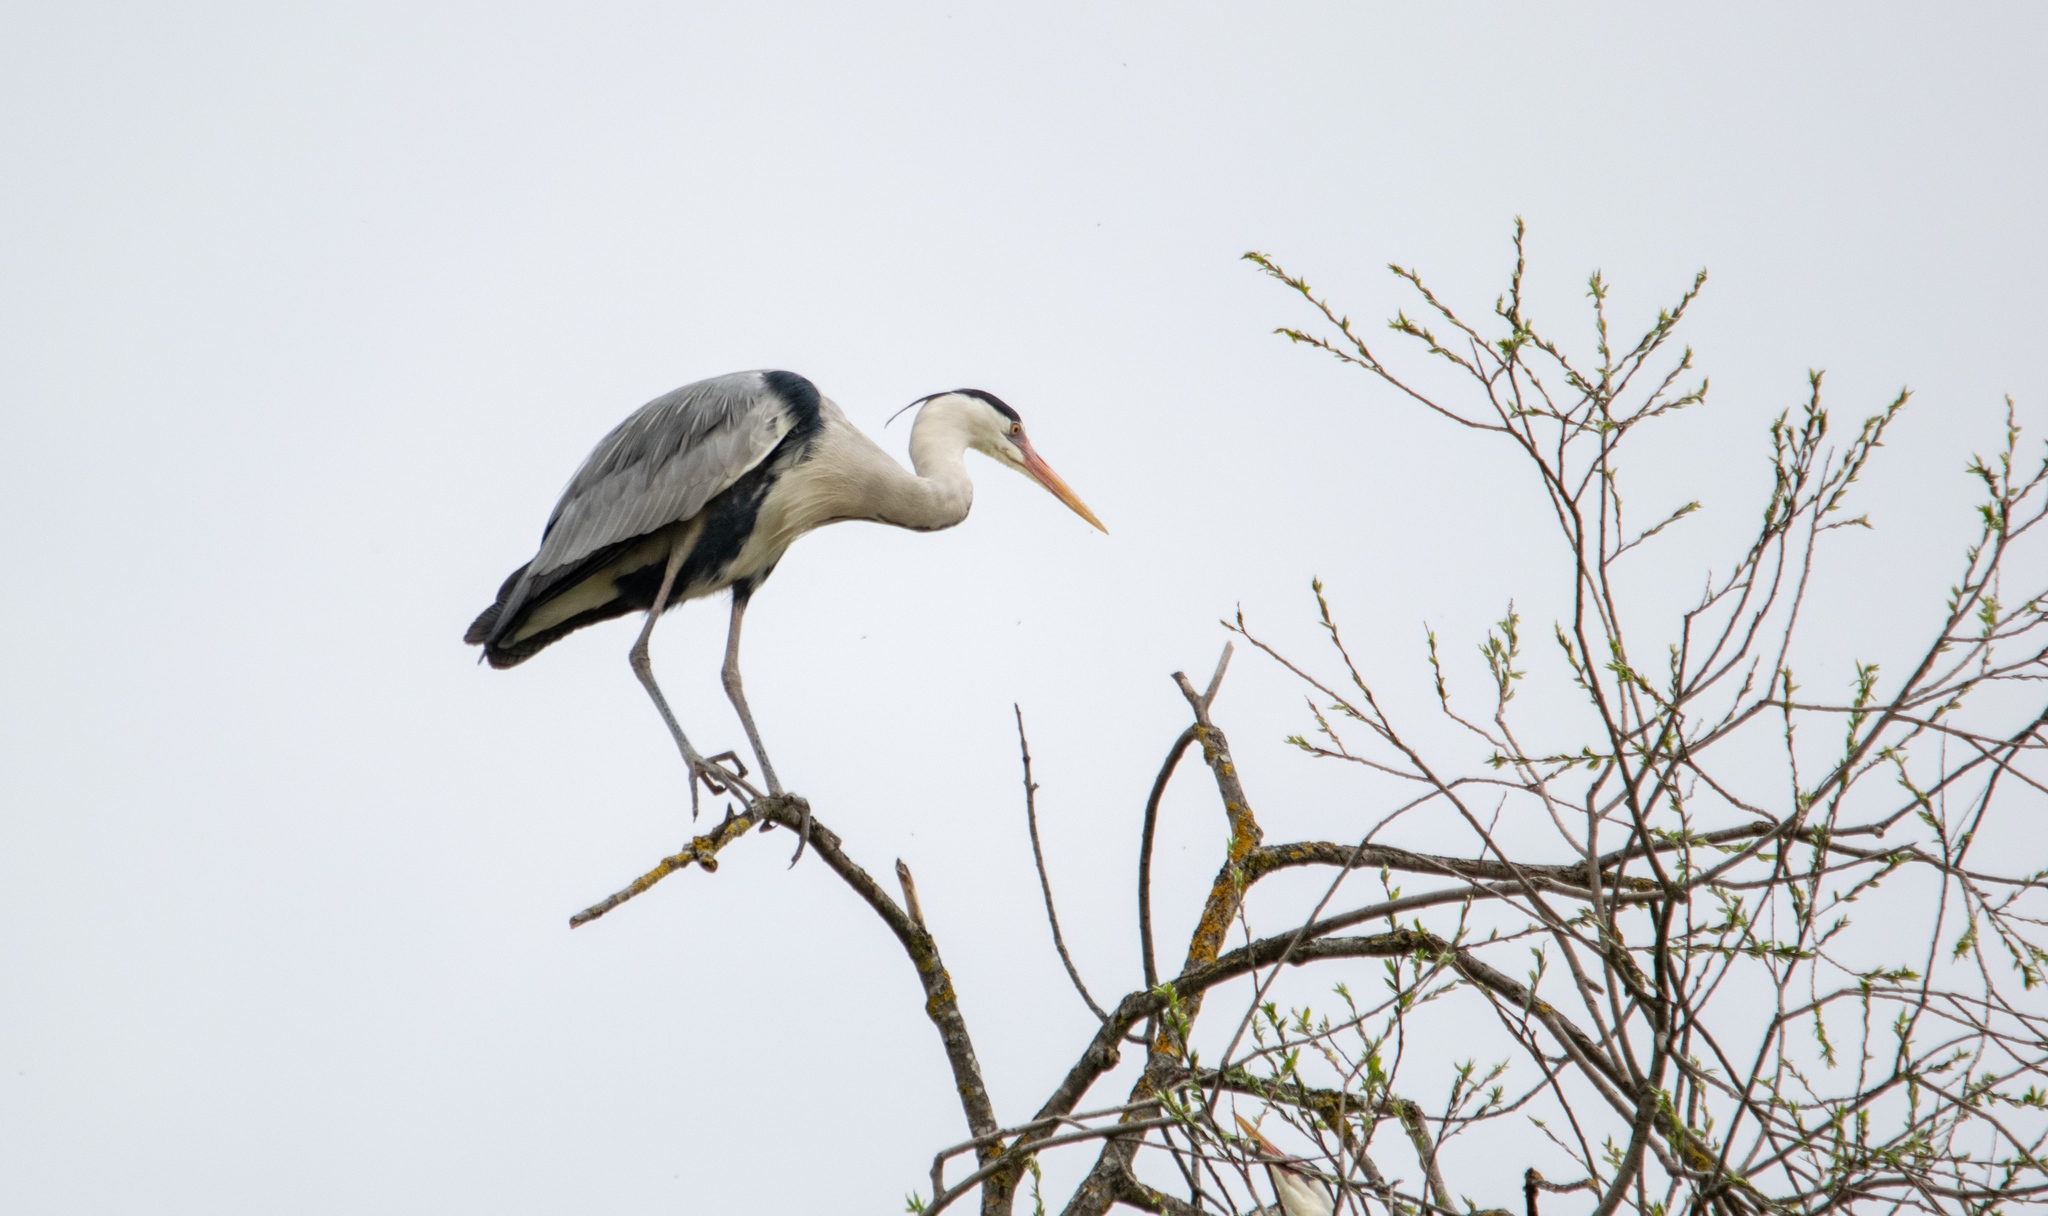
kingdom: Animalia
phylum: Chordata
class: Aves
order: Pelecaniformes
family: Ardeidae
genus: Ardea
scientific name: Ardea cinerea
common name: Grey heron
